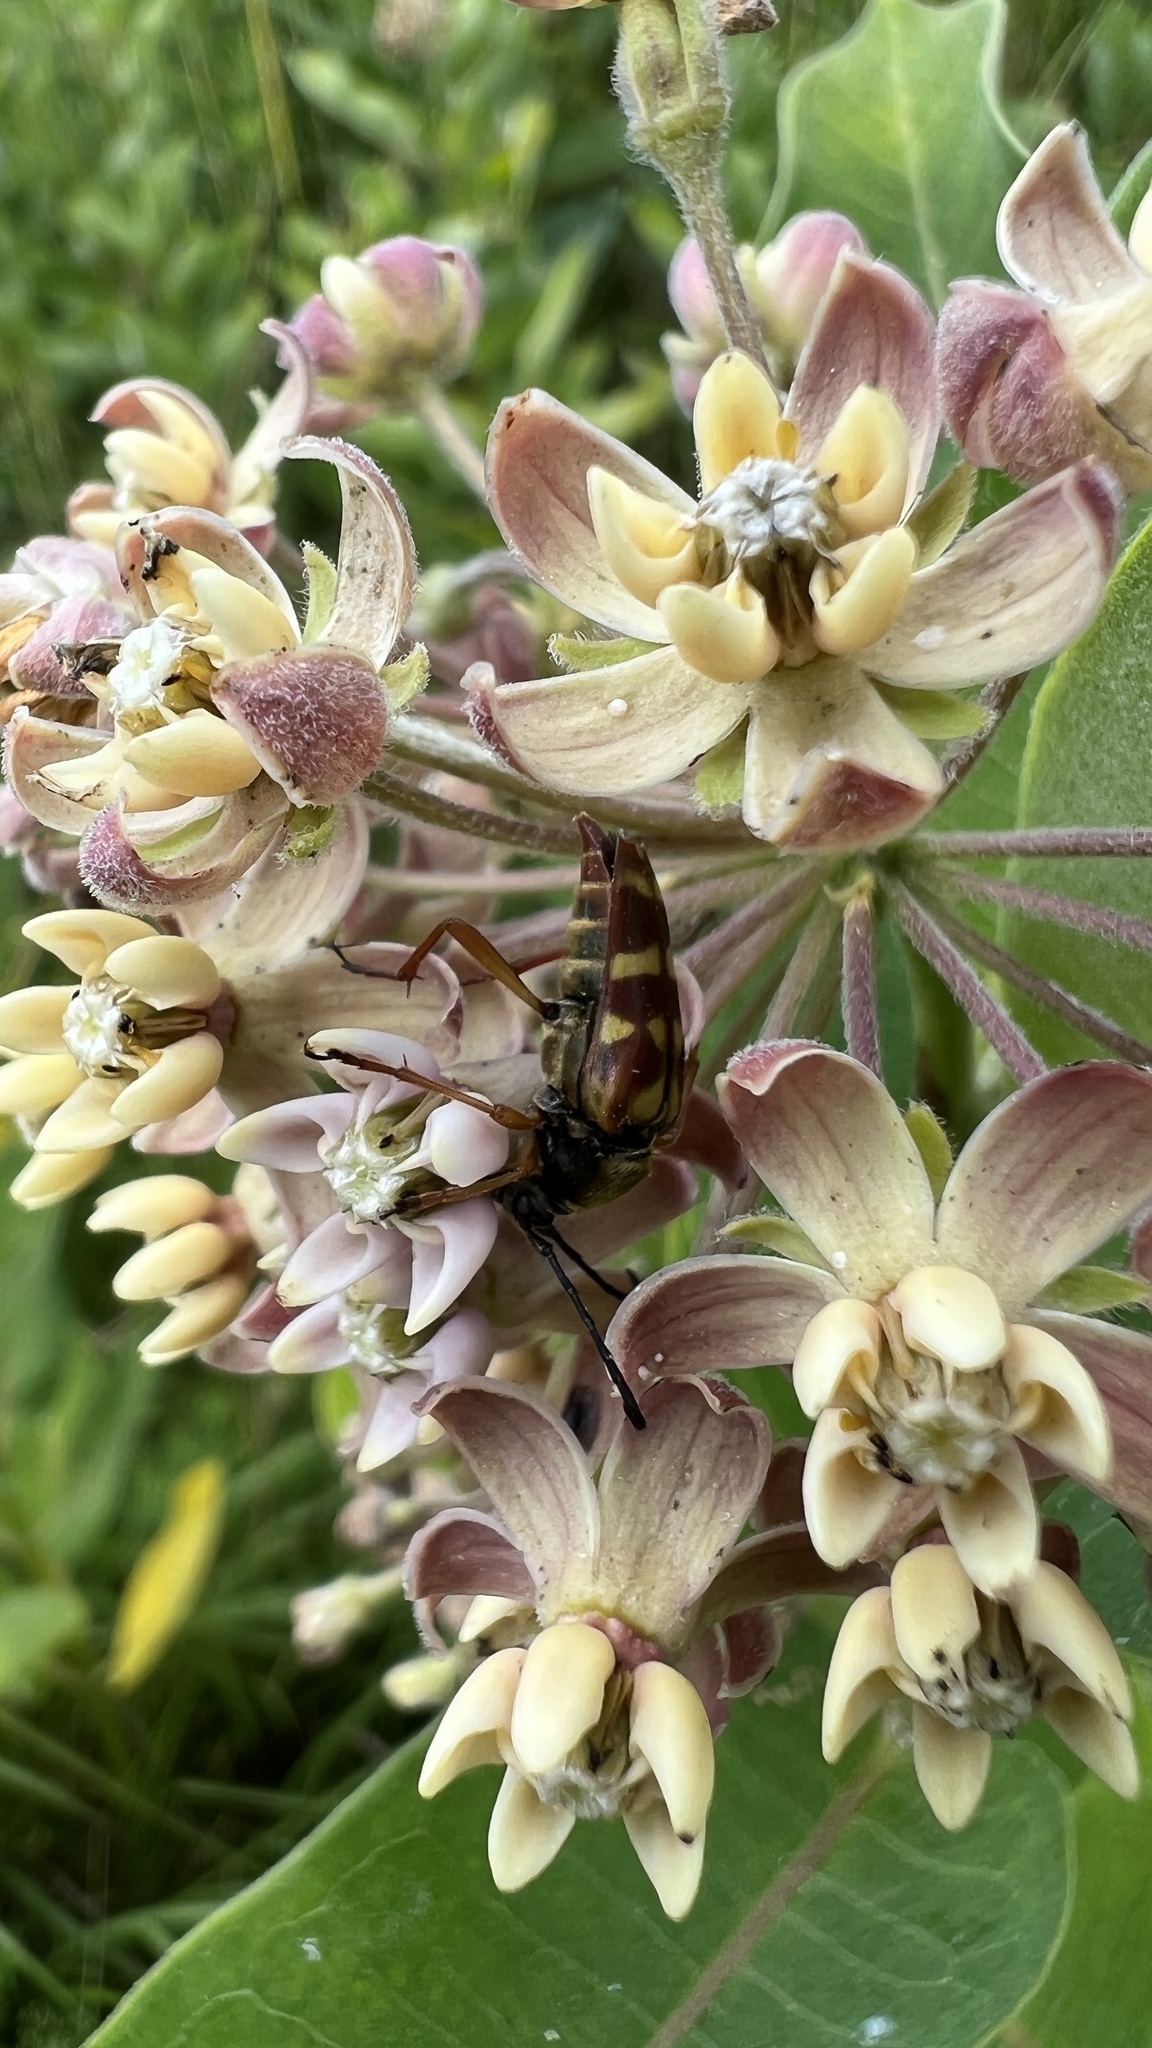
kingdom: Animalia
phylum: Arthropoda
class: Insecta
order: Coleoptera
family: Cerambycidae
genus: Typocerus
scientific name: Typocerus velutinus
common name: Banded longhorn beetle
